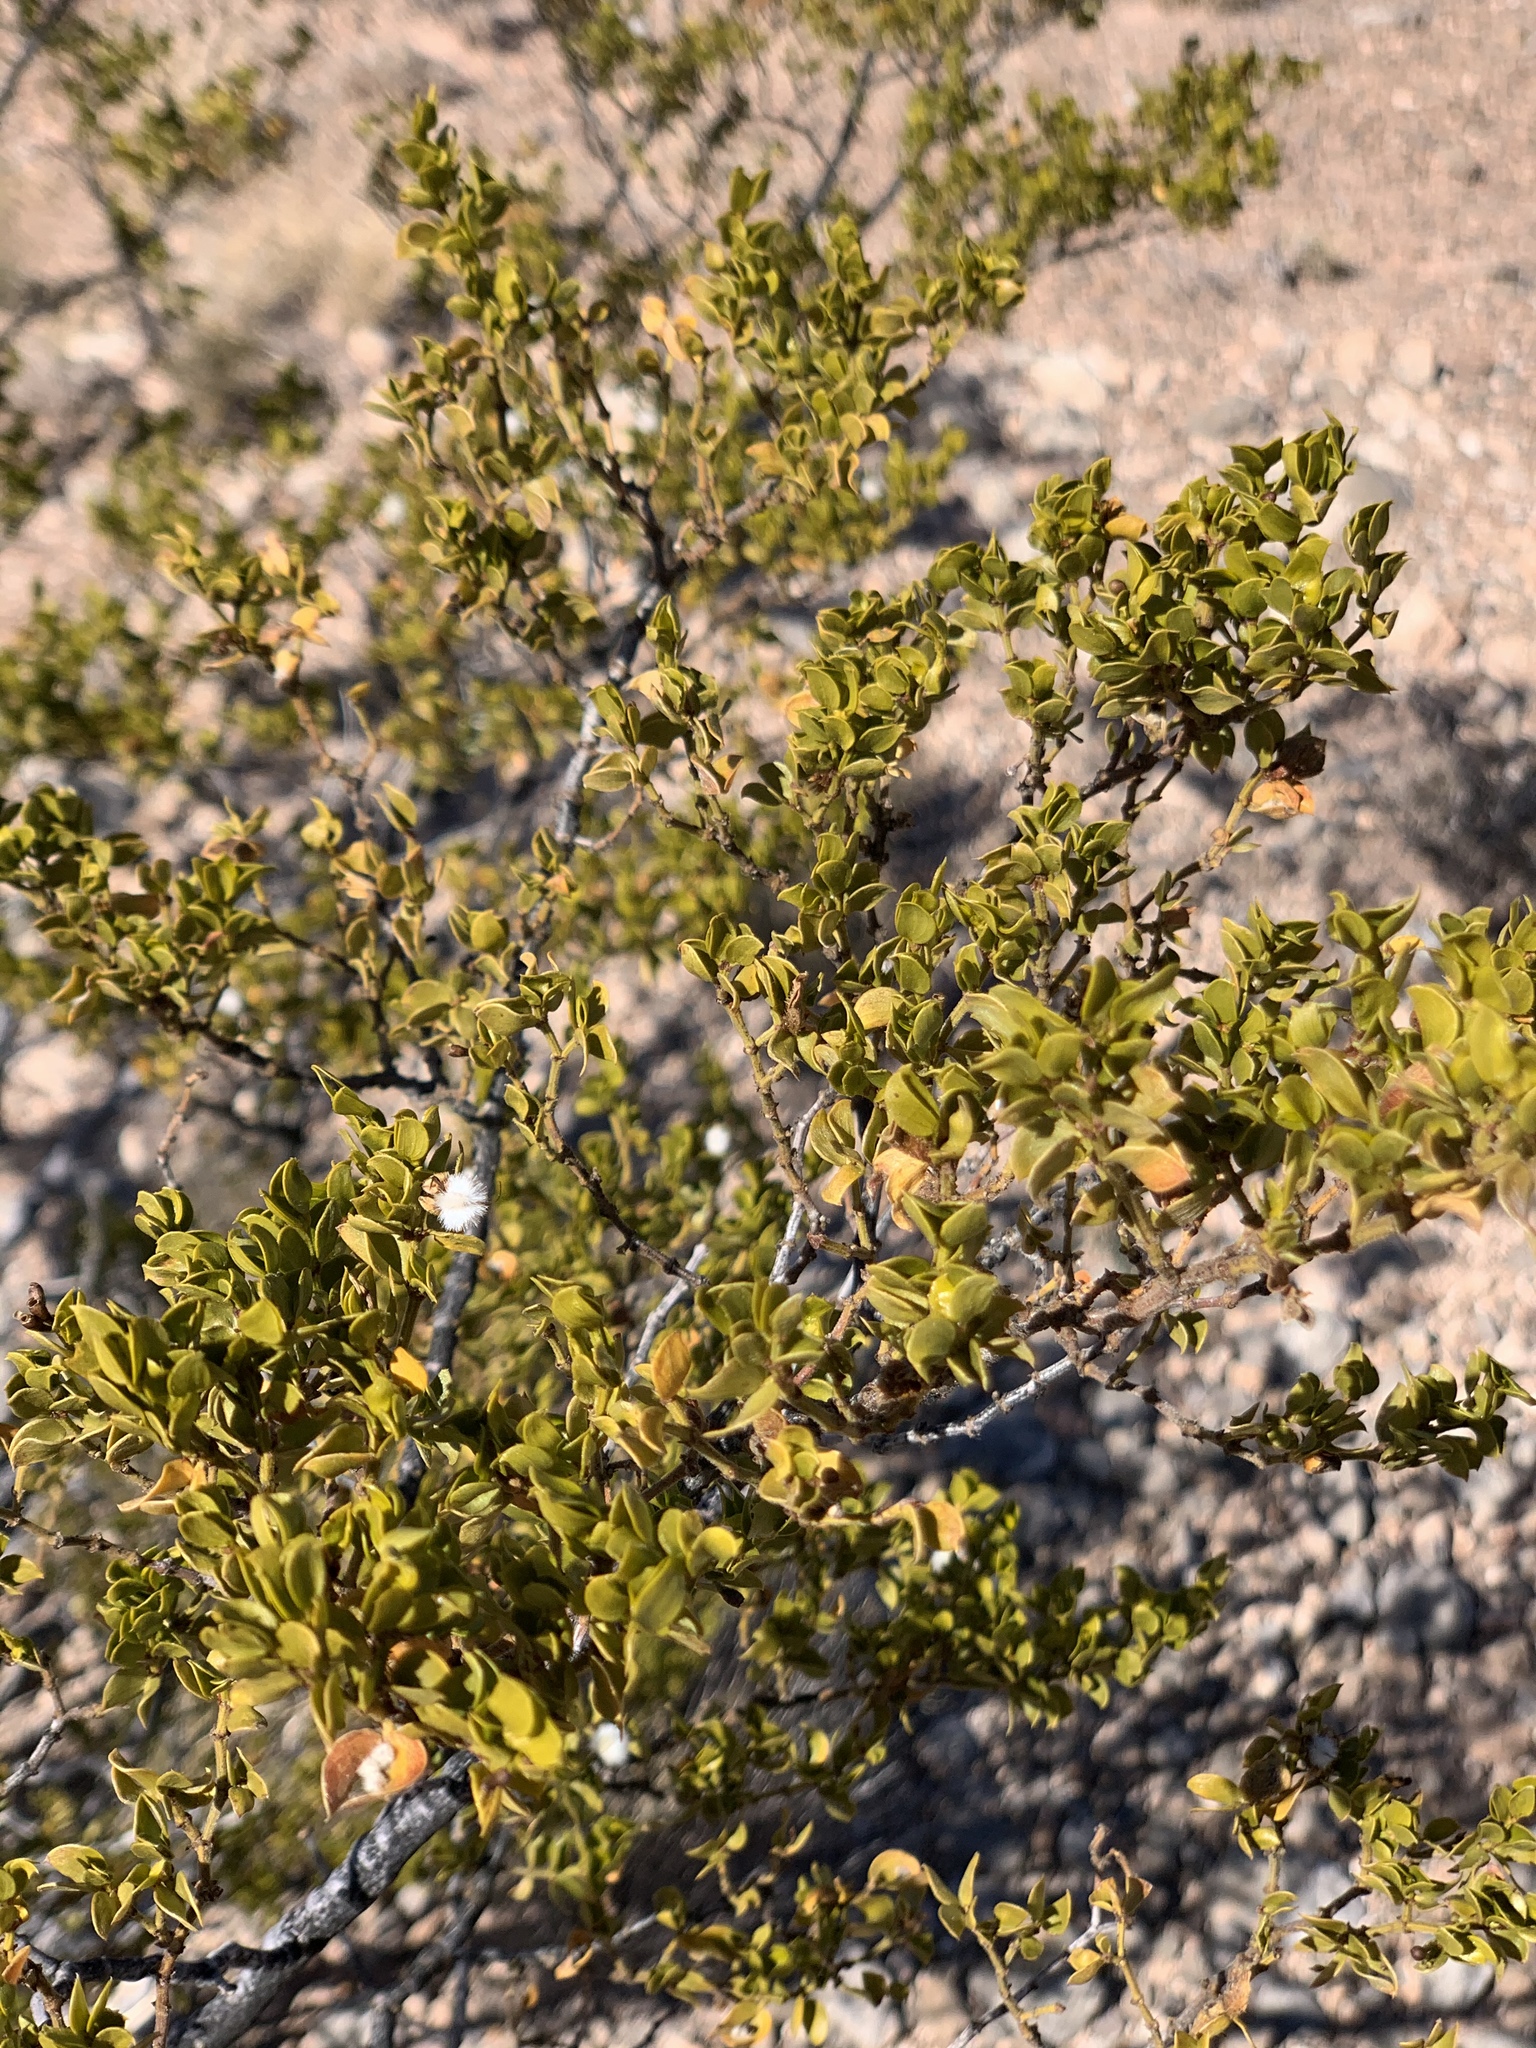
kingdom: Plantae
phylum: Tracheophyta
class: Magnoliopsida
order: Zygophyllales
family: Zygophyllaceae
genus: Larrea
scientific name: Larrea tridentata
